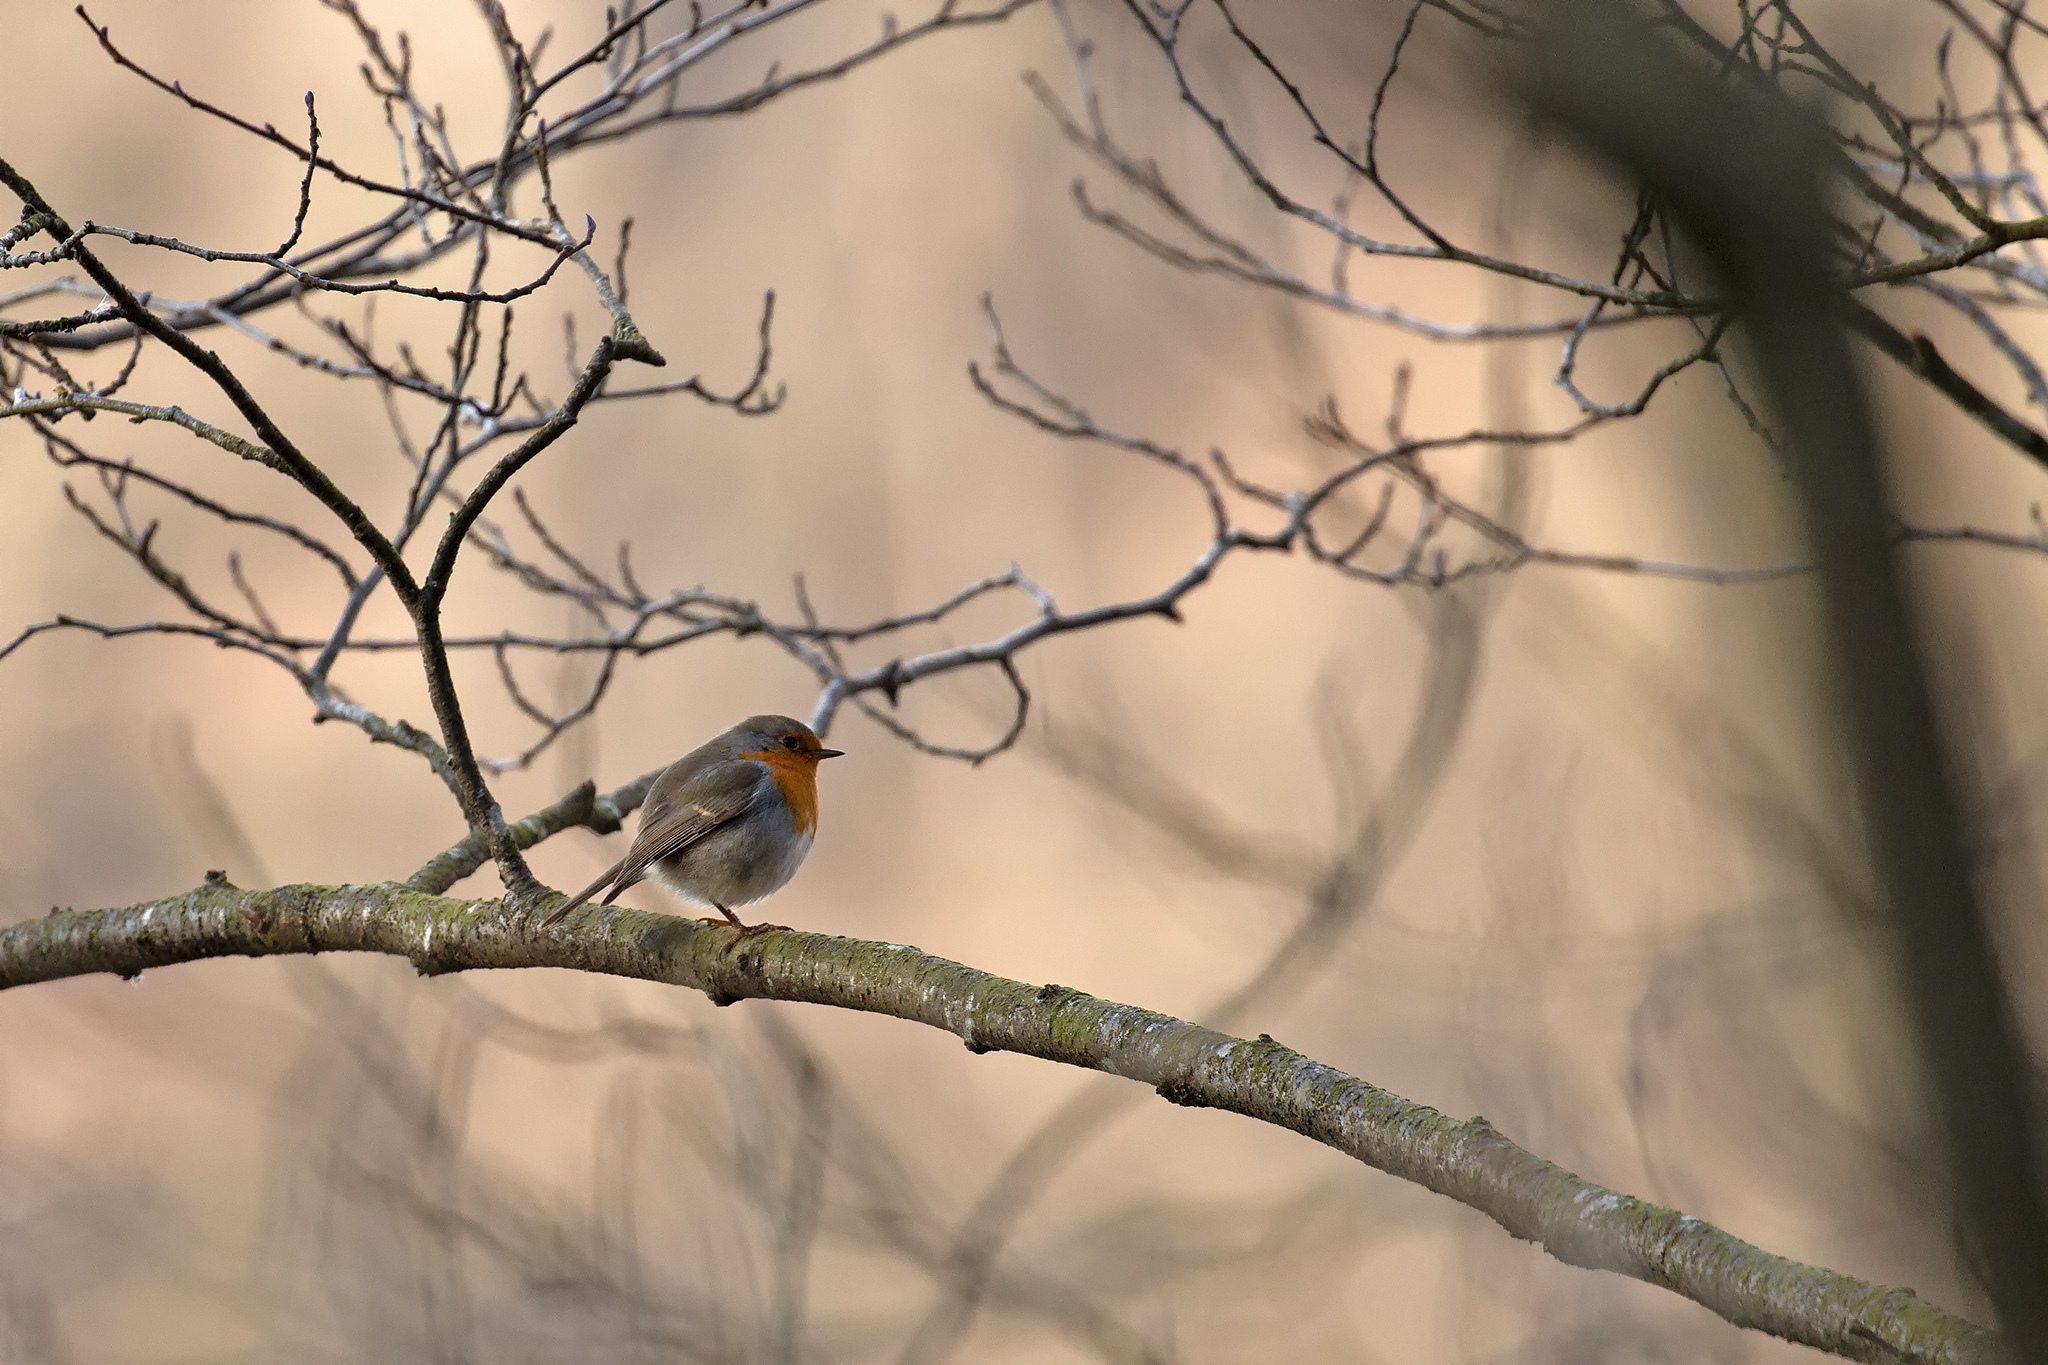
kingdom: Animalia
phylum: Chordata
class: Aves
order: Passeriformes
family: Muscicapidae
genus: Erithacus
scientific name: Erithacus rubecula
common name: European robin
